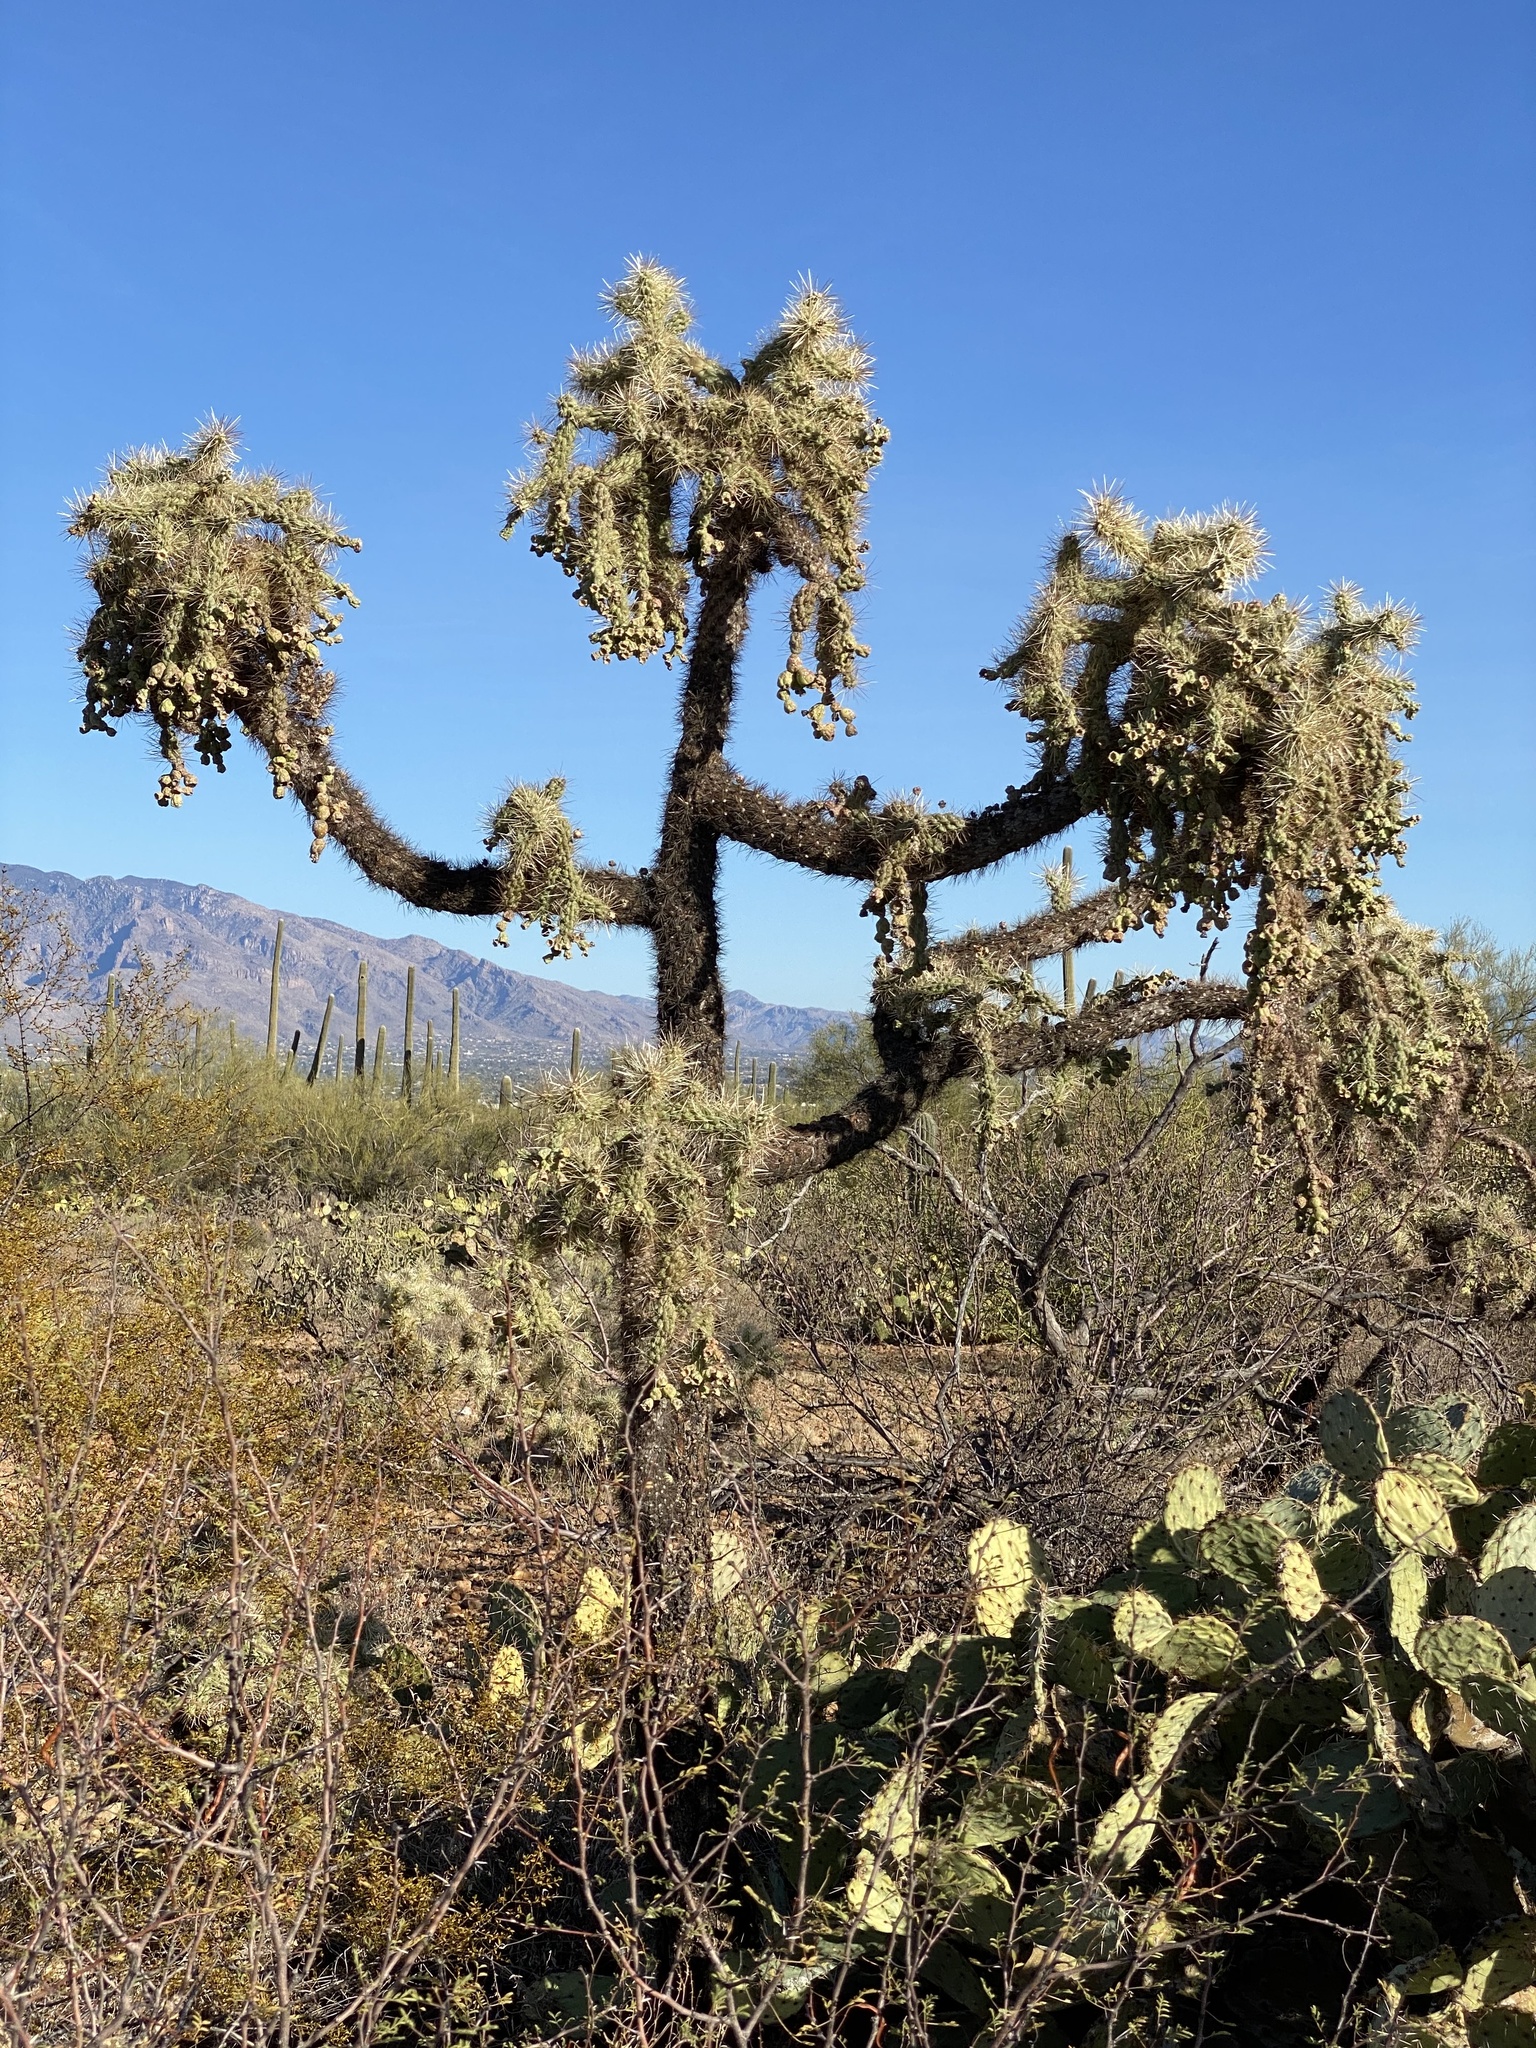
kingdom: Plantae
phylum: Tracheophyta
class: Magnoliopsida
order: Caryophyllales
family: Cactaceae
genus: Cylindropuntia
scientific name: Cylindropuntia fulgida
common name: Jumping cholla
